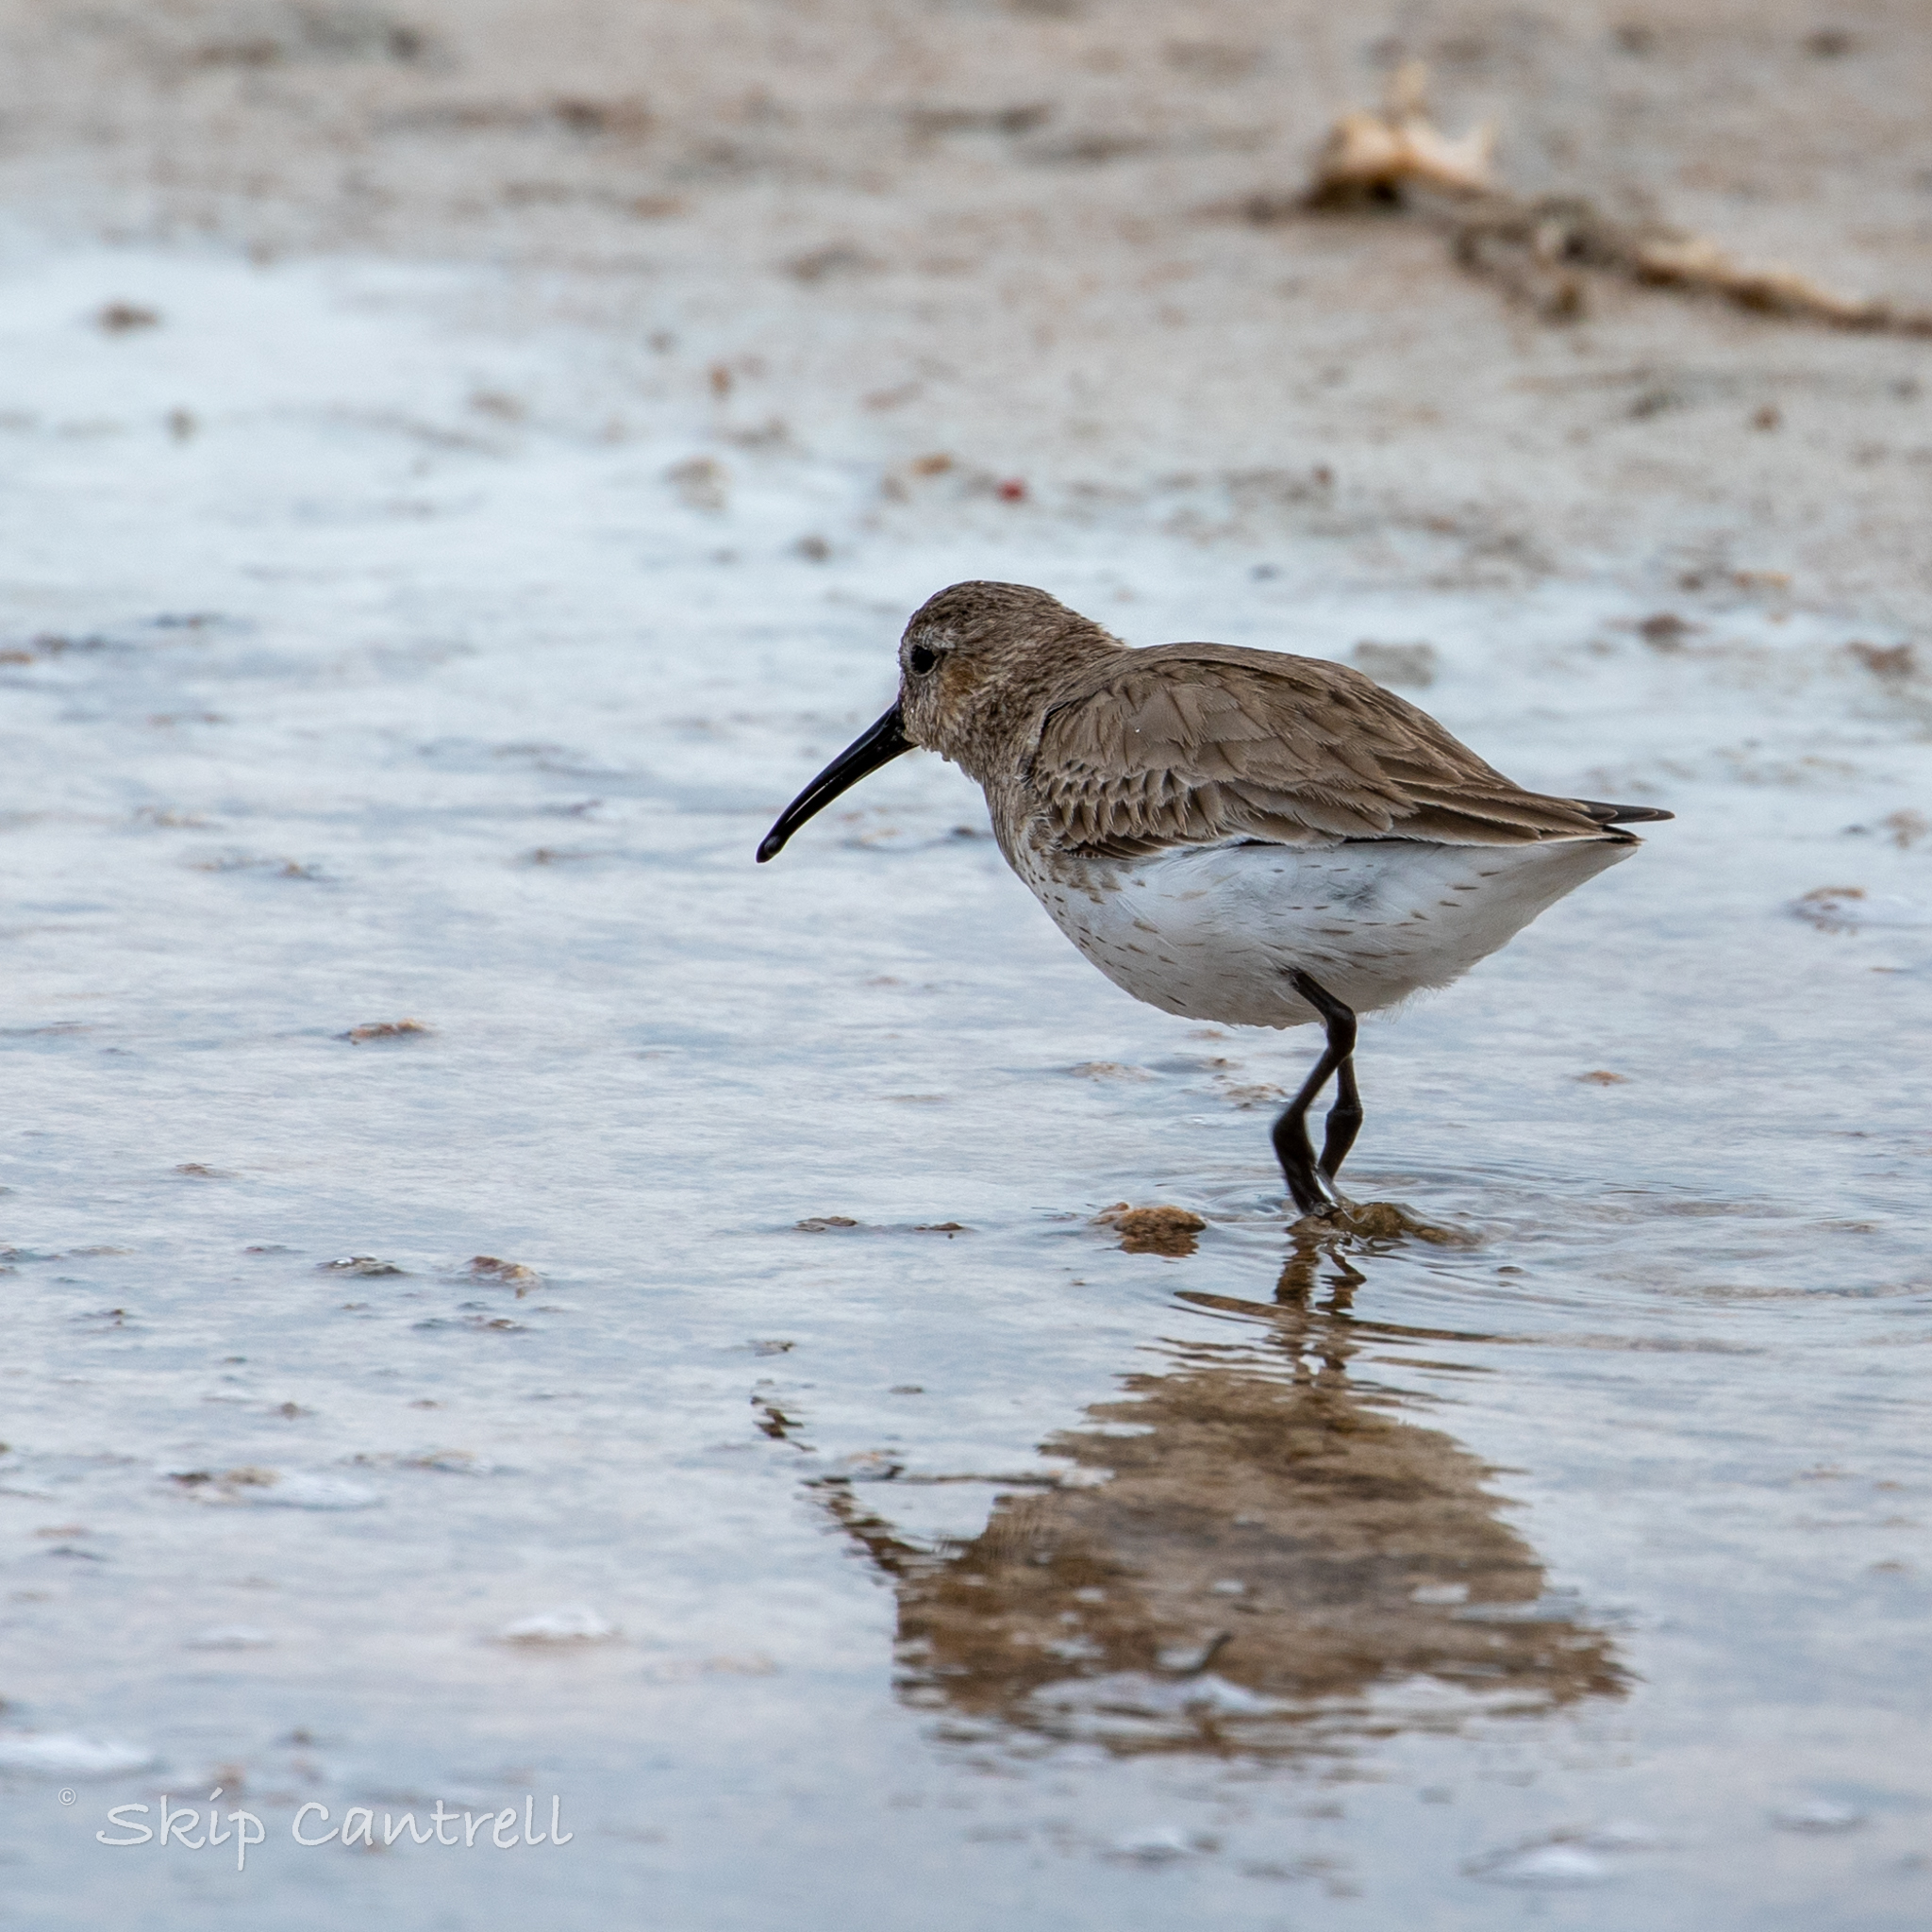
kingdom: Animalia
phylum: Chordata
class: Aves
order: Charadriiformes
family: Scolopacidae
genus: Calidris
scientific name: Calidris alpina
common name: Dunlin
